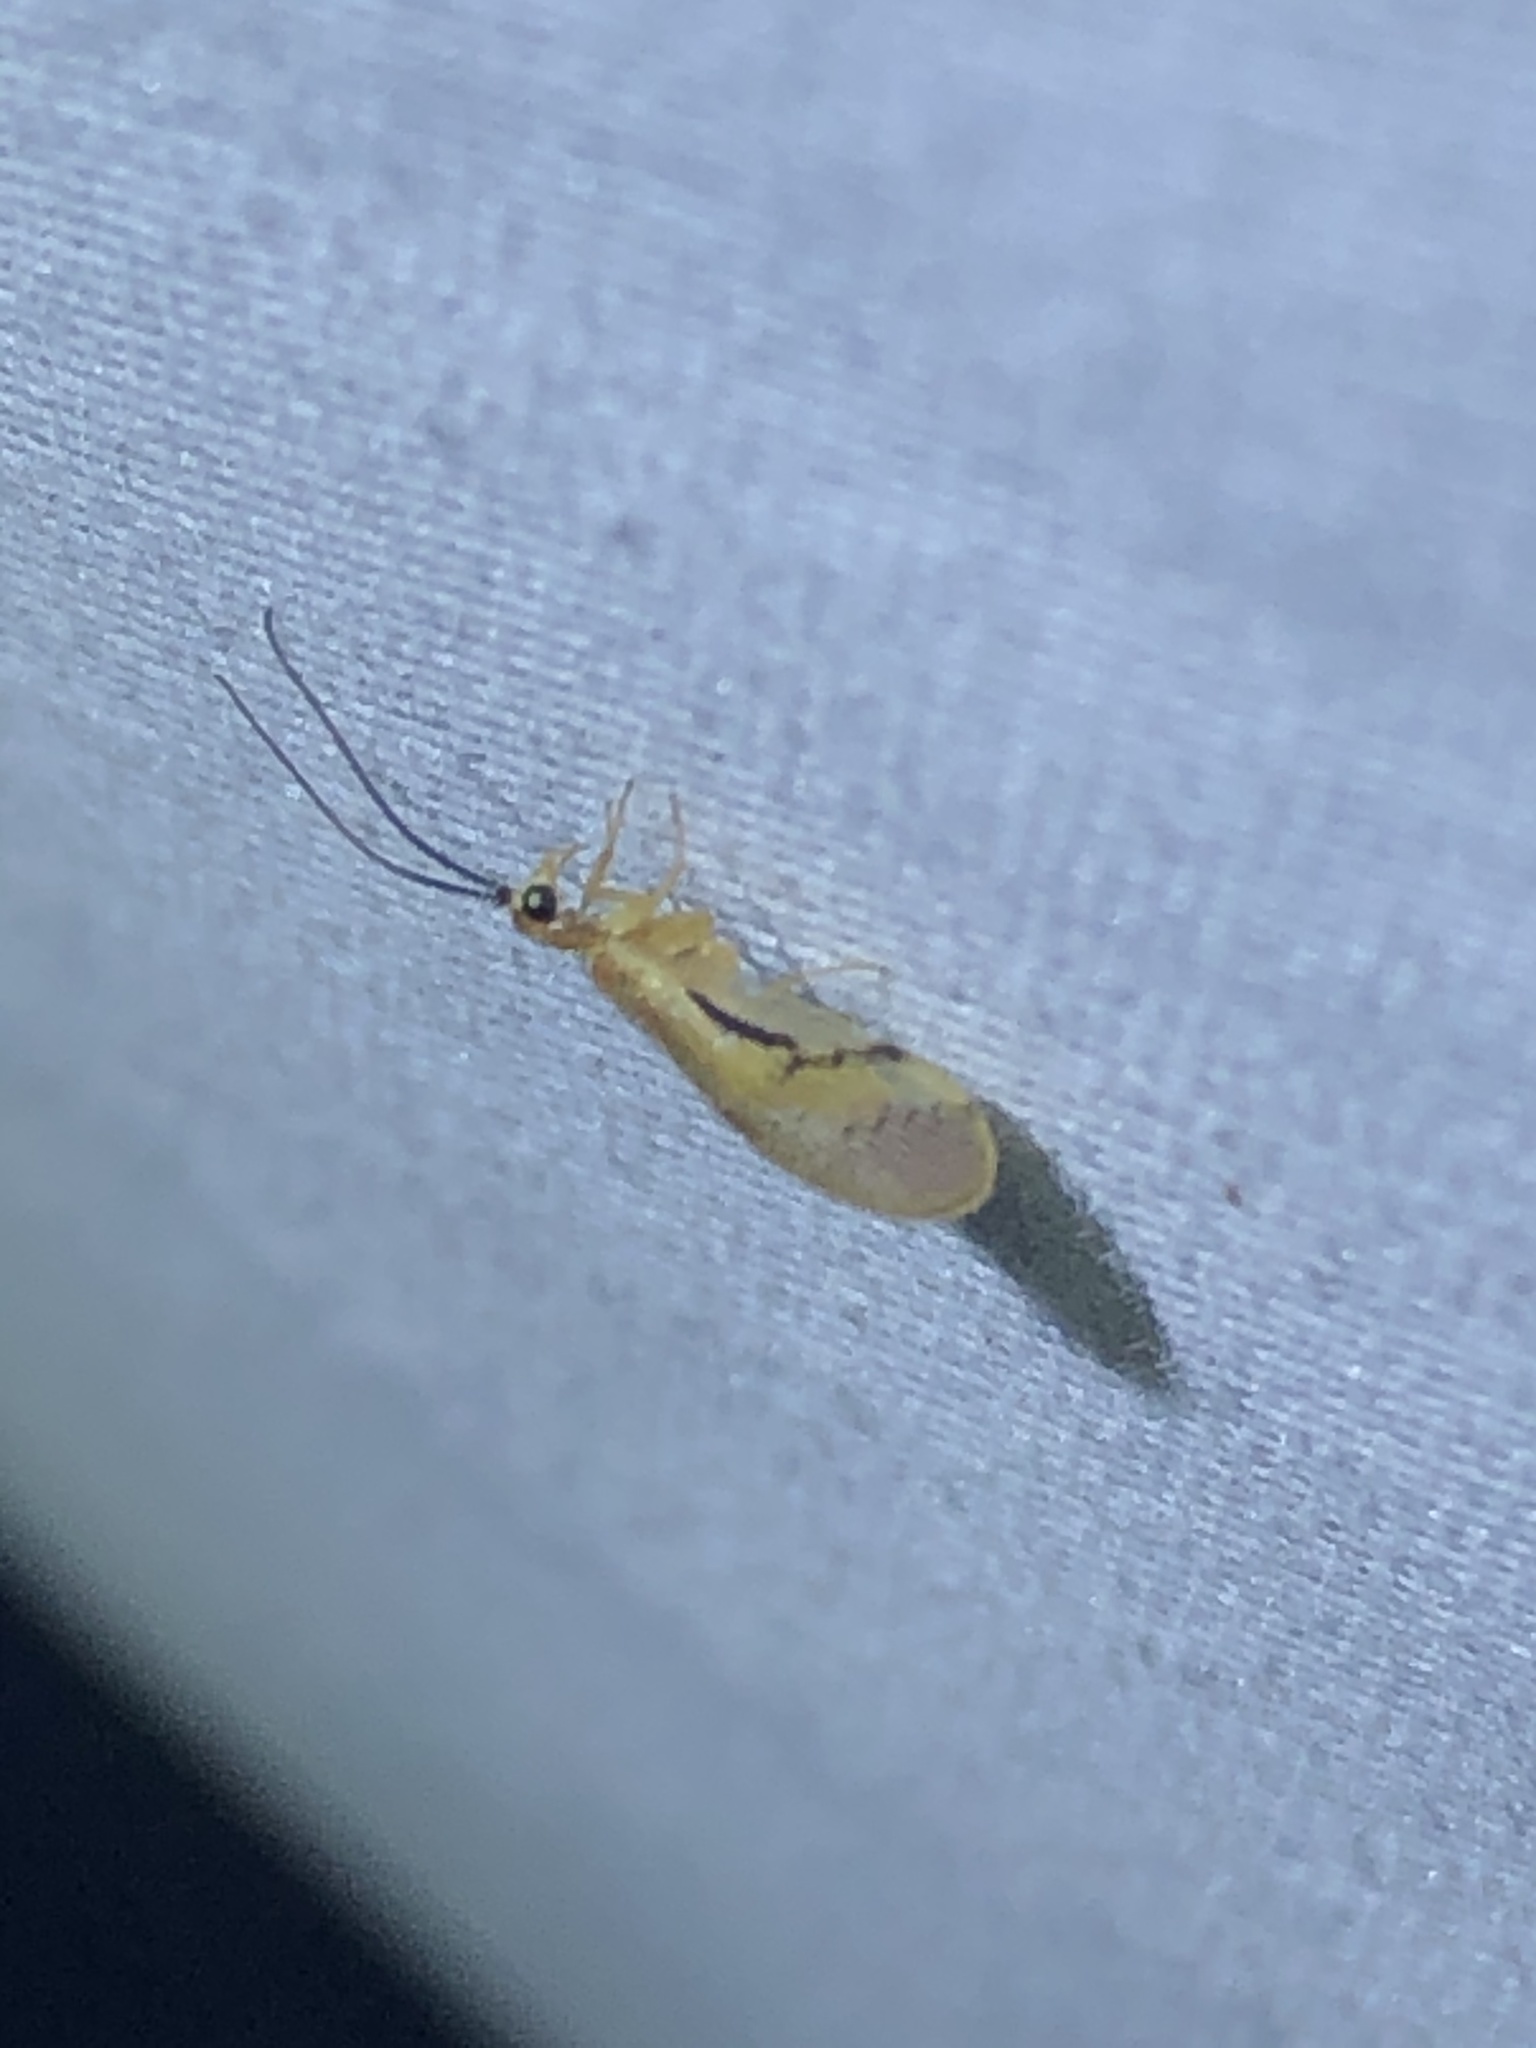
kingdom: Animalia
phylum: Arthropoda
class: Insecta
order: Neuroptera
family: Sisyridae
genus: Climacia
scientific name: Climacia chapini
